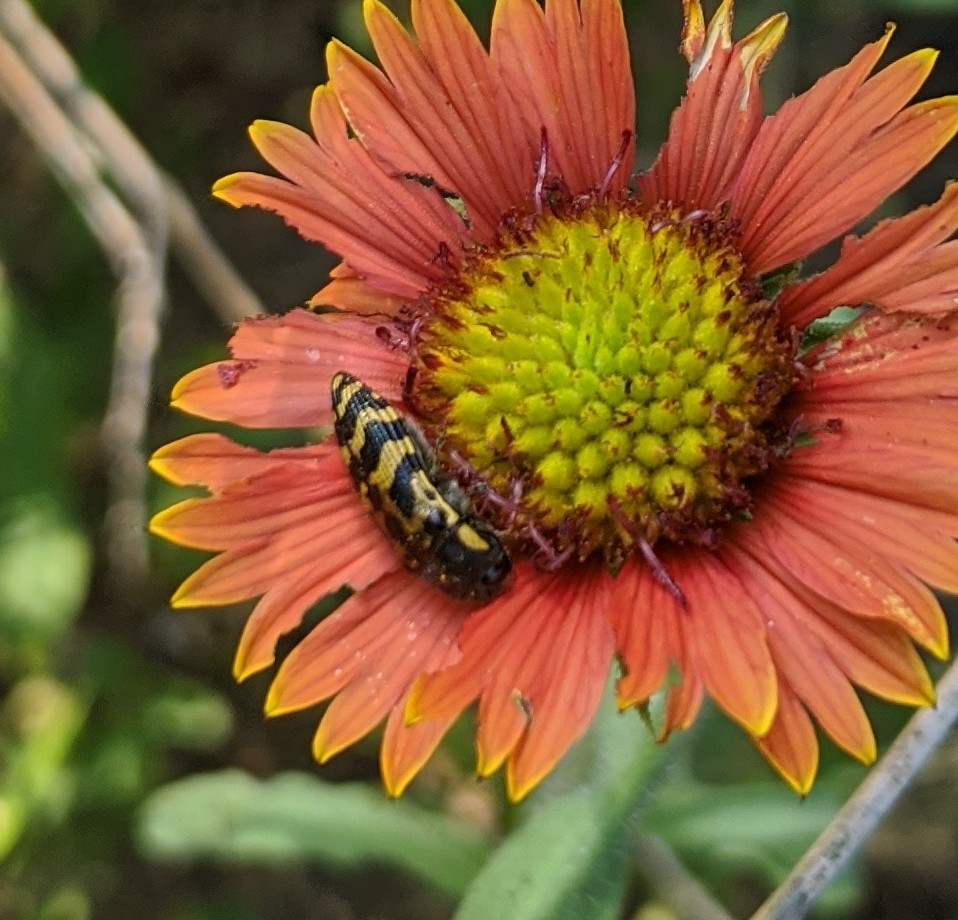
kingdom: Animalia
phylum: Arthropoda
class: Insecta
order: Coleoptera
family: Buprestidae
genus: Acmaeodera
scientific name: Acmaeodera mixta
